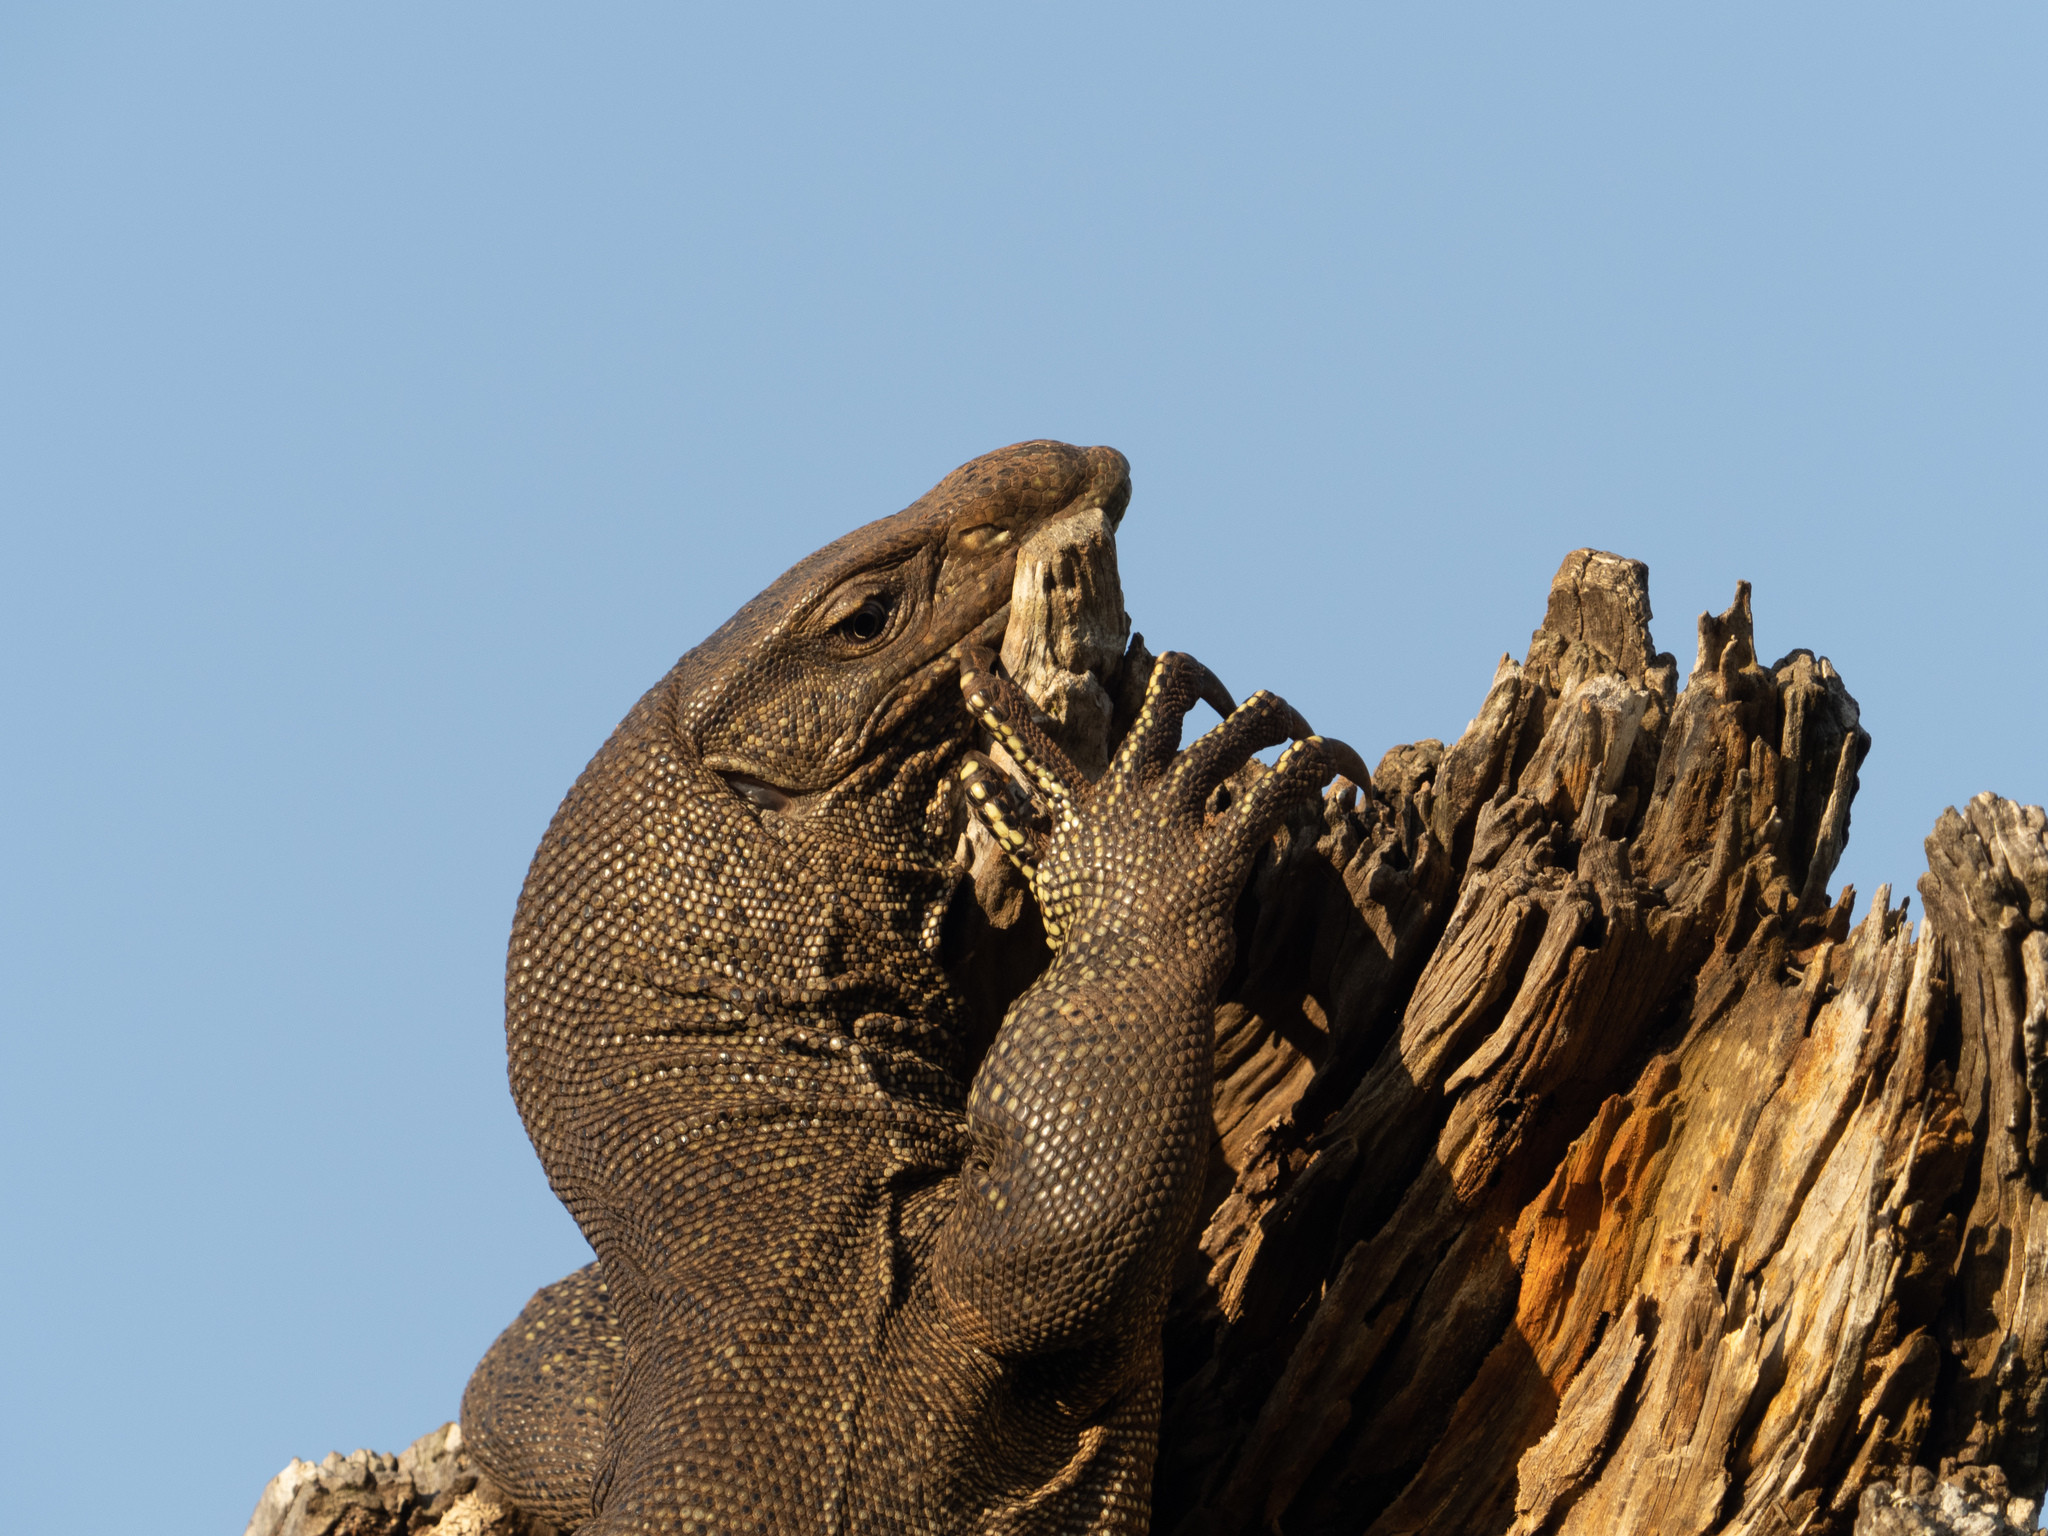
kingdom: Animalia
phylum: Chordata
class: Squamata
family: Varanidae
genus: Varanus
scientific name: Varanus bengalensis
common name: Bengal monitor
